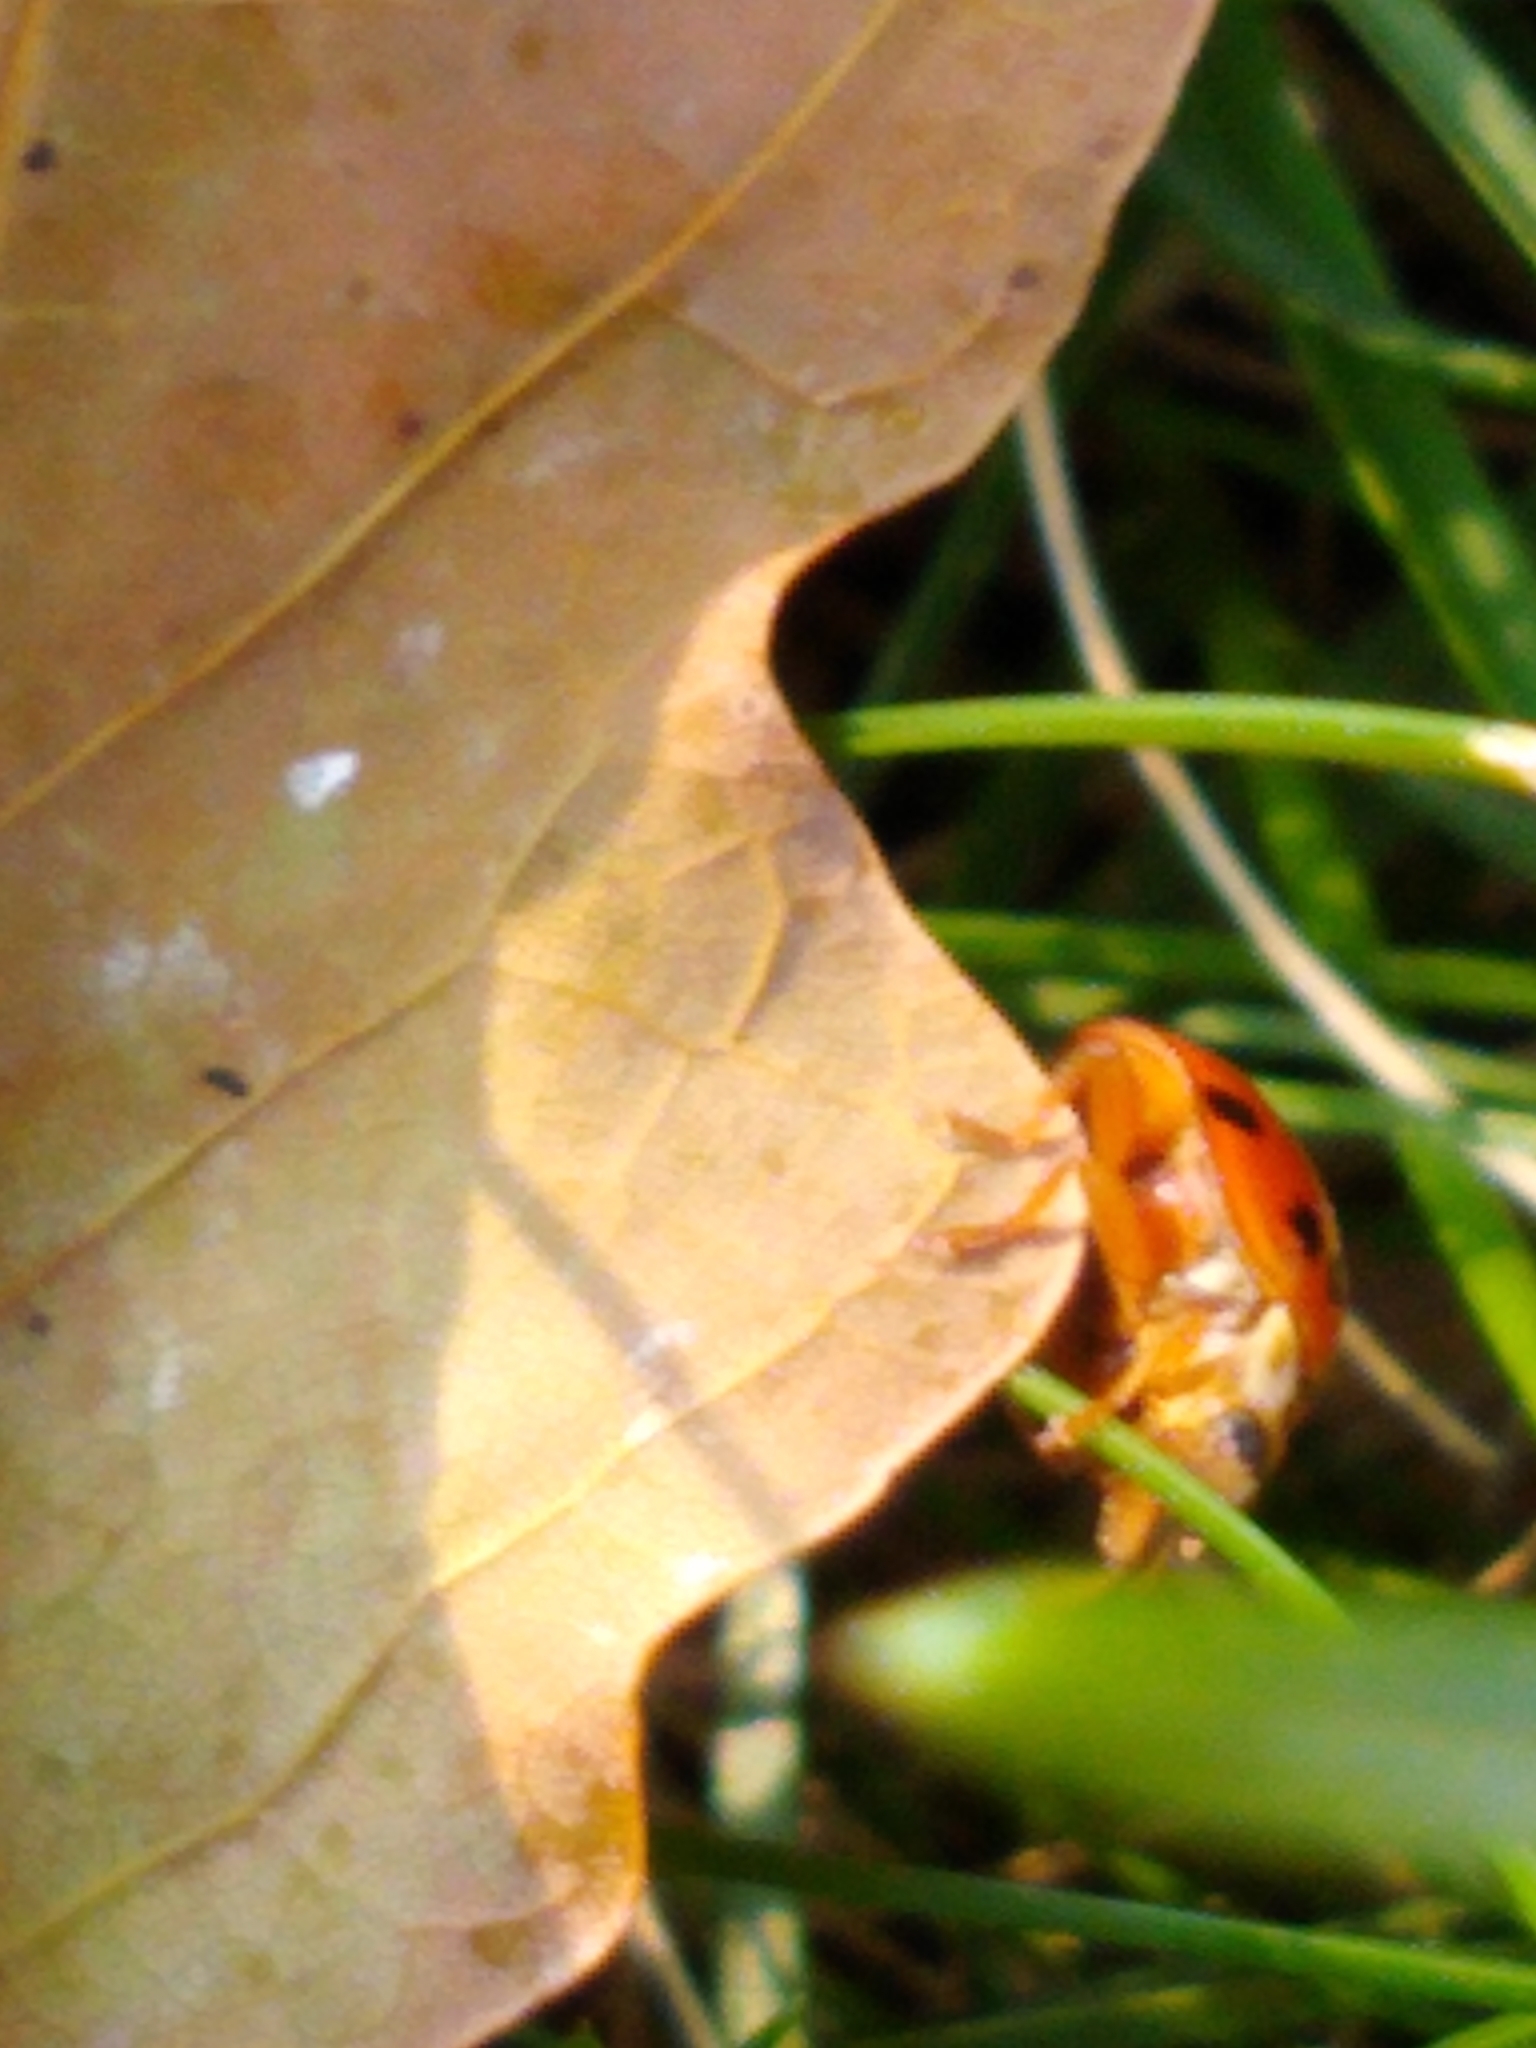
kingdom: Animalia
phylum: Arthropoda
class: Insecta
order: Coleoptera
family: Coccinellidae
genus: Harmonia
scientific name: Harmonia axyridis
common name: Harlequin ladybird
